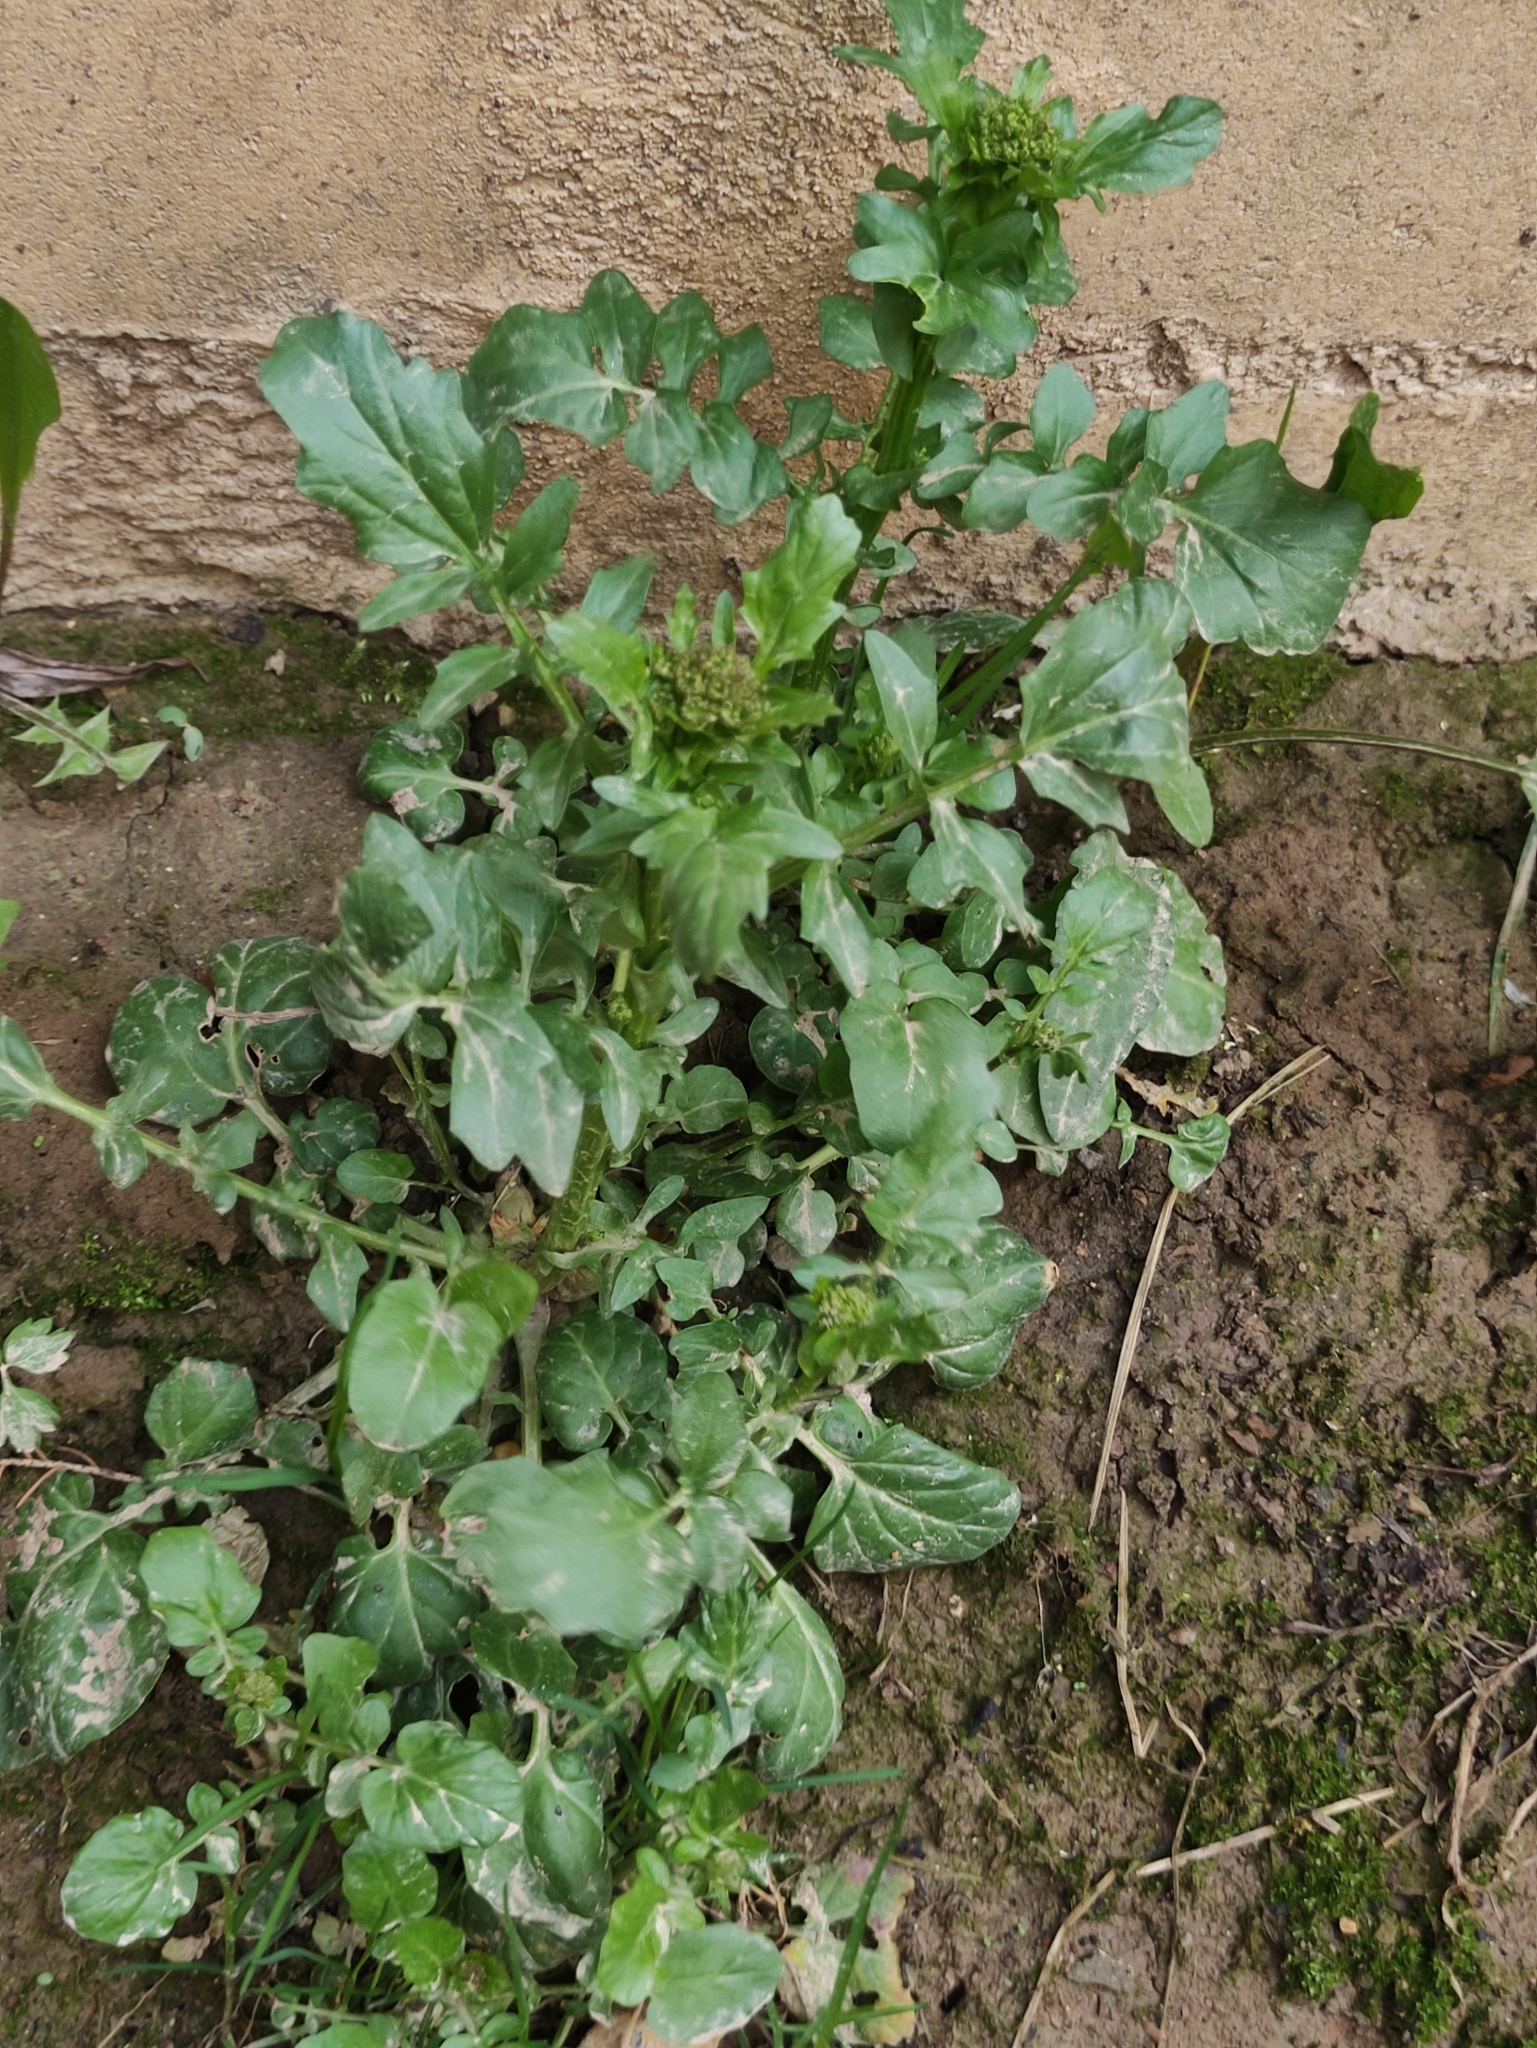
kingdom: Plantae
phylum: Tracheophyta
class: Magnoliopsida
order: Brassicales
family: Brassicaceae
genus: Barbarea
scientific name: Barbarea vulgaris
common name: Cressy-greens
